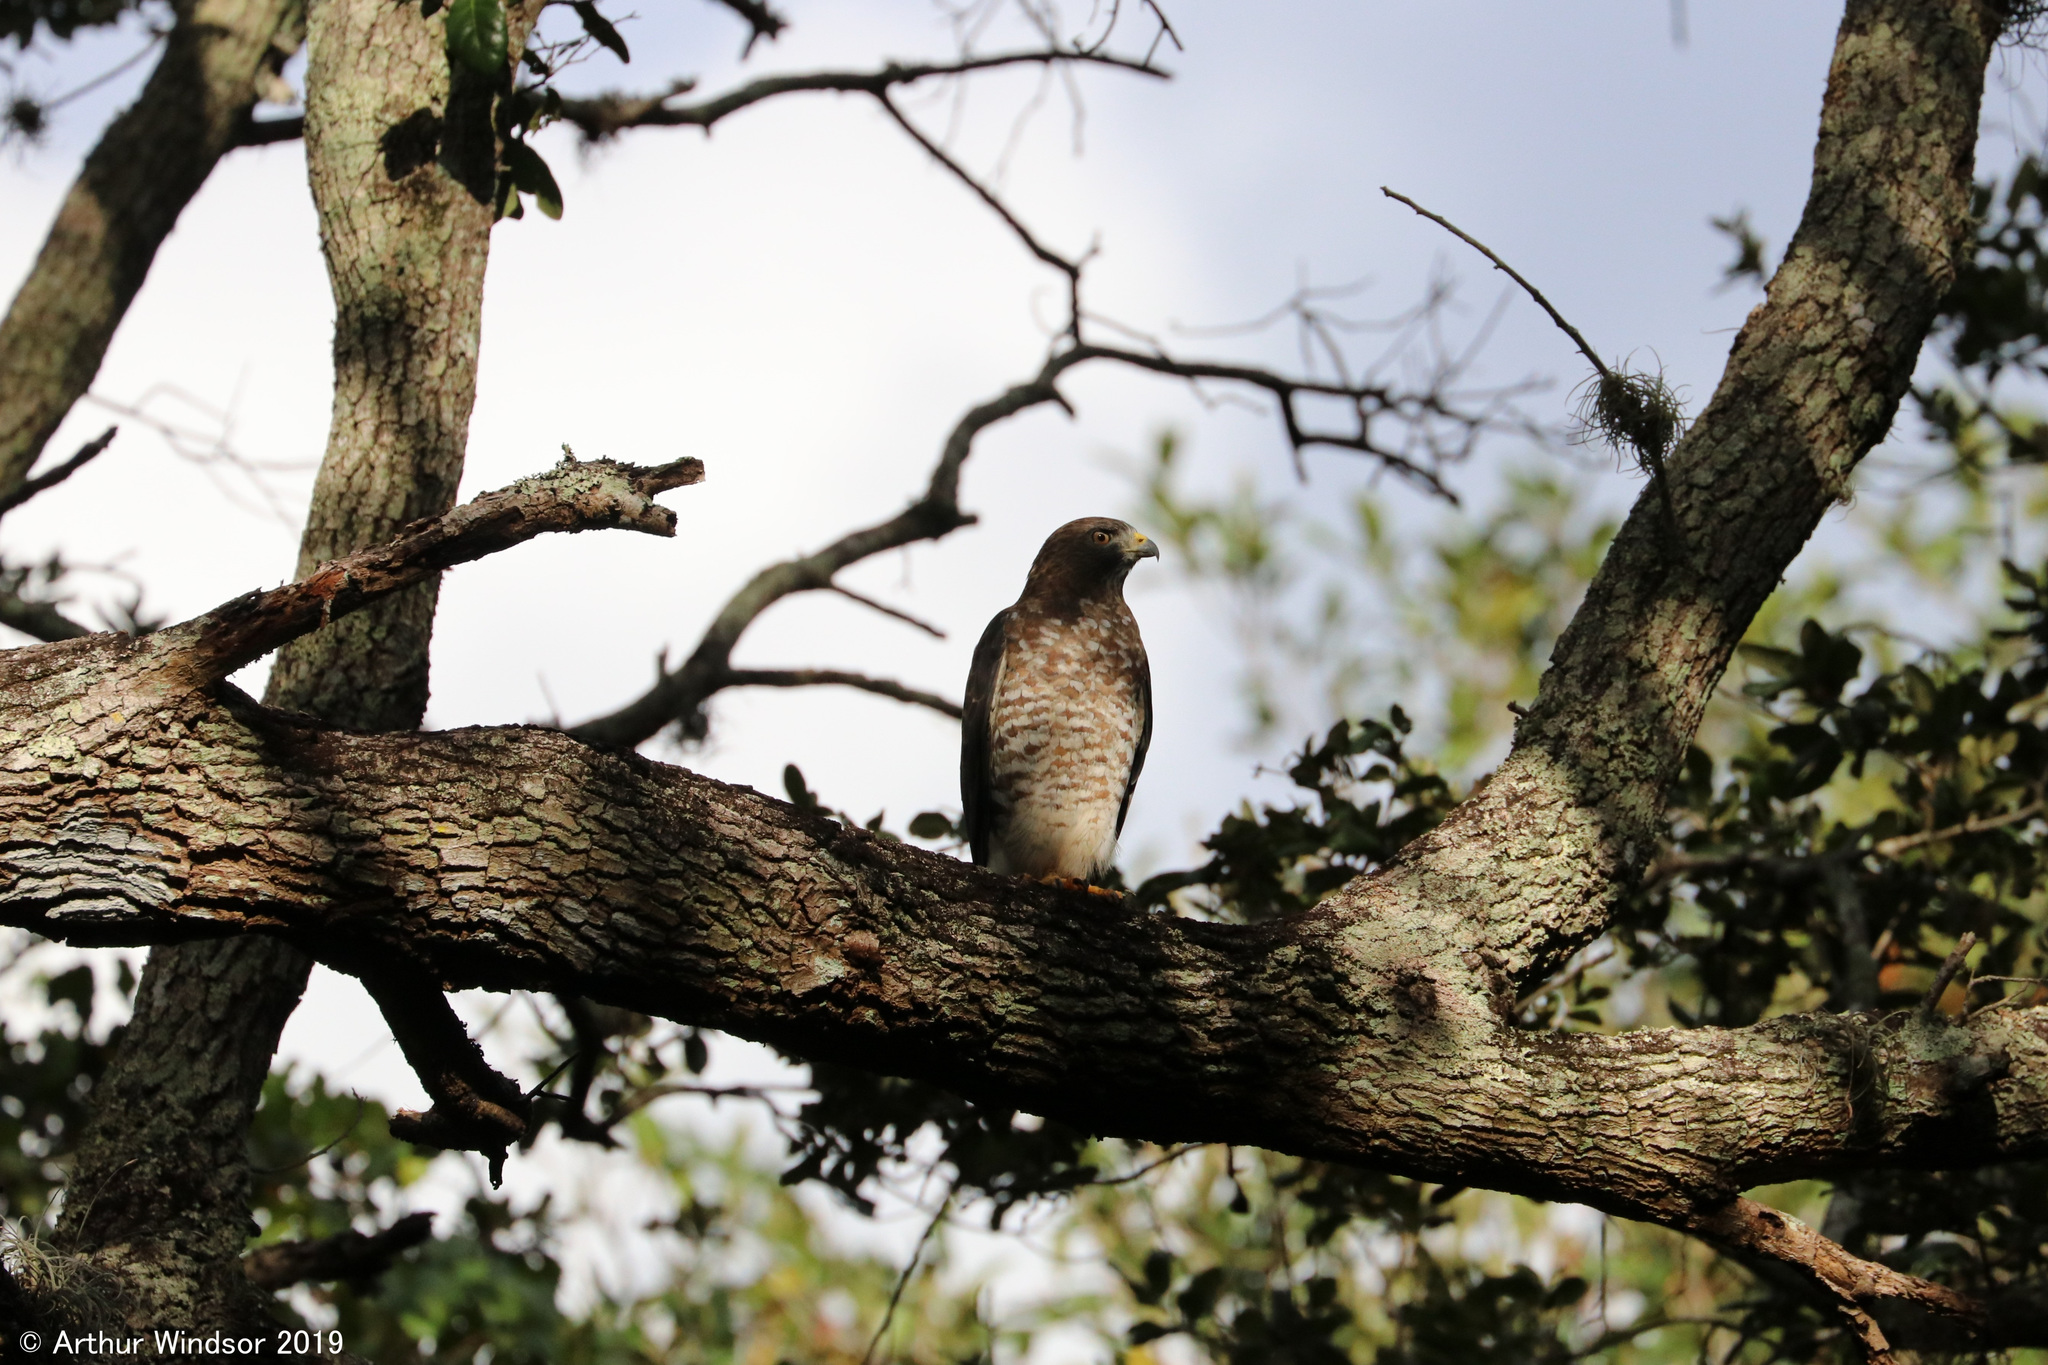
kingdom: Animalia
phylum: Chordata
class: Aves
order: Accipitriformes
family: Accipitridae
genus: Buteo
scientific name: Buteo platypterus
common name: Broad-winged hawk
